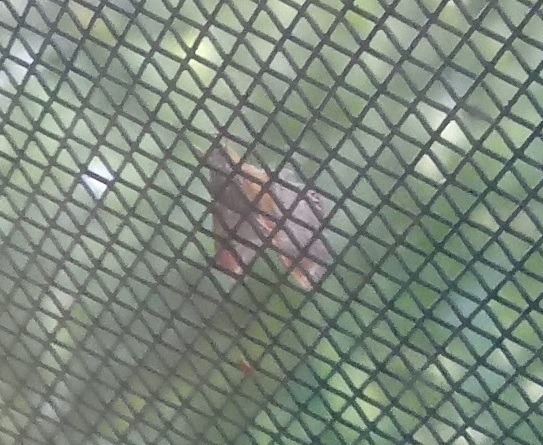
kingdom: Animalia
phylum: Arthropoda
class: Insecta
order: Lepidoptera
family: Crambidae
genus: Chalcoela
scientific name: Chalcoela iphitalis
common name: Sooty-winged chalcoela moth
